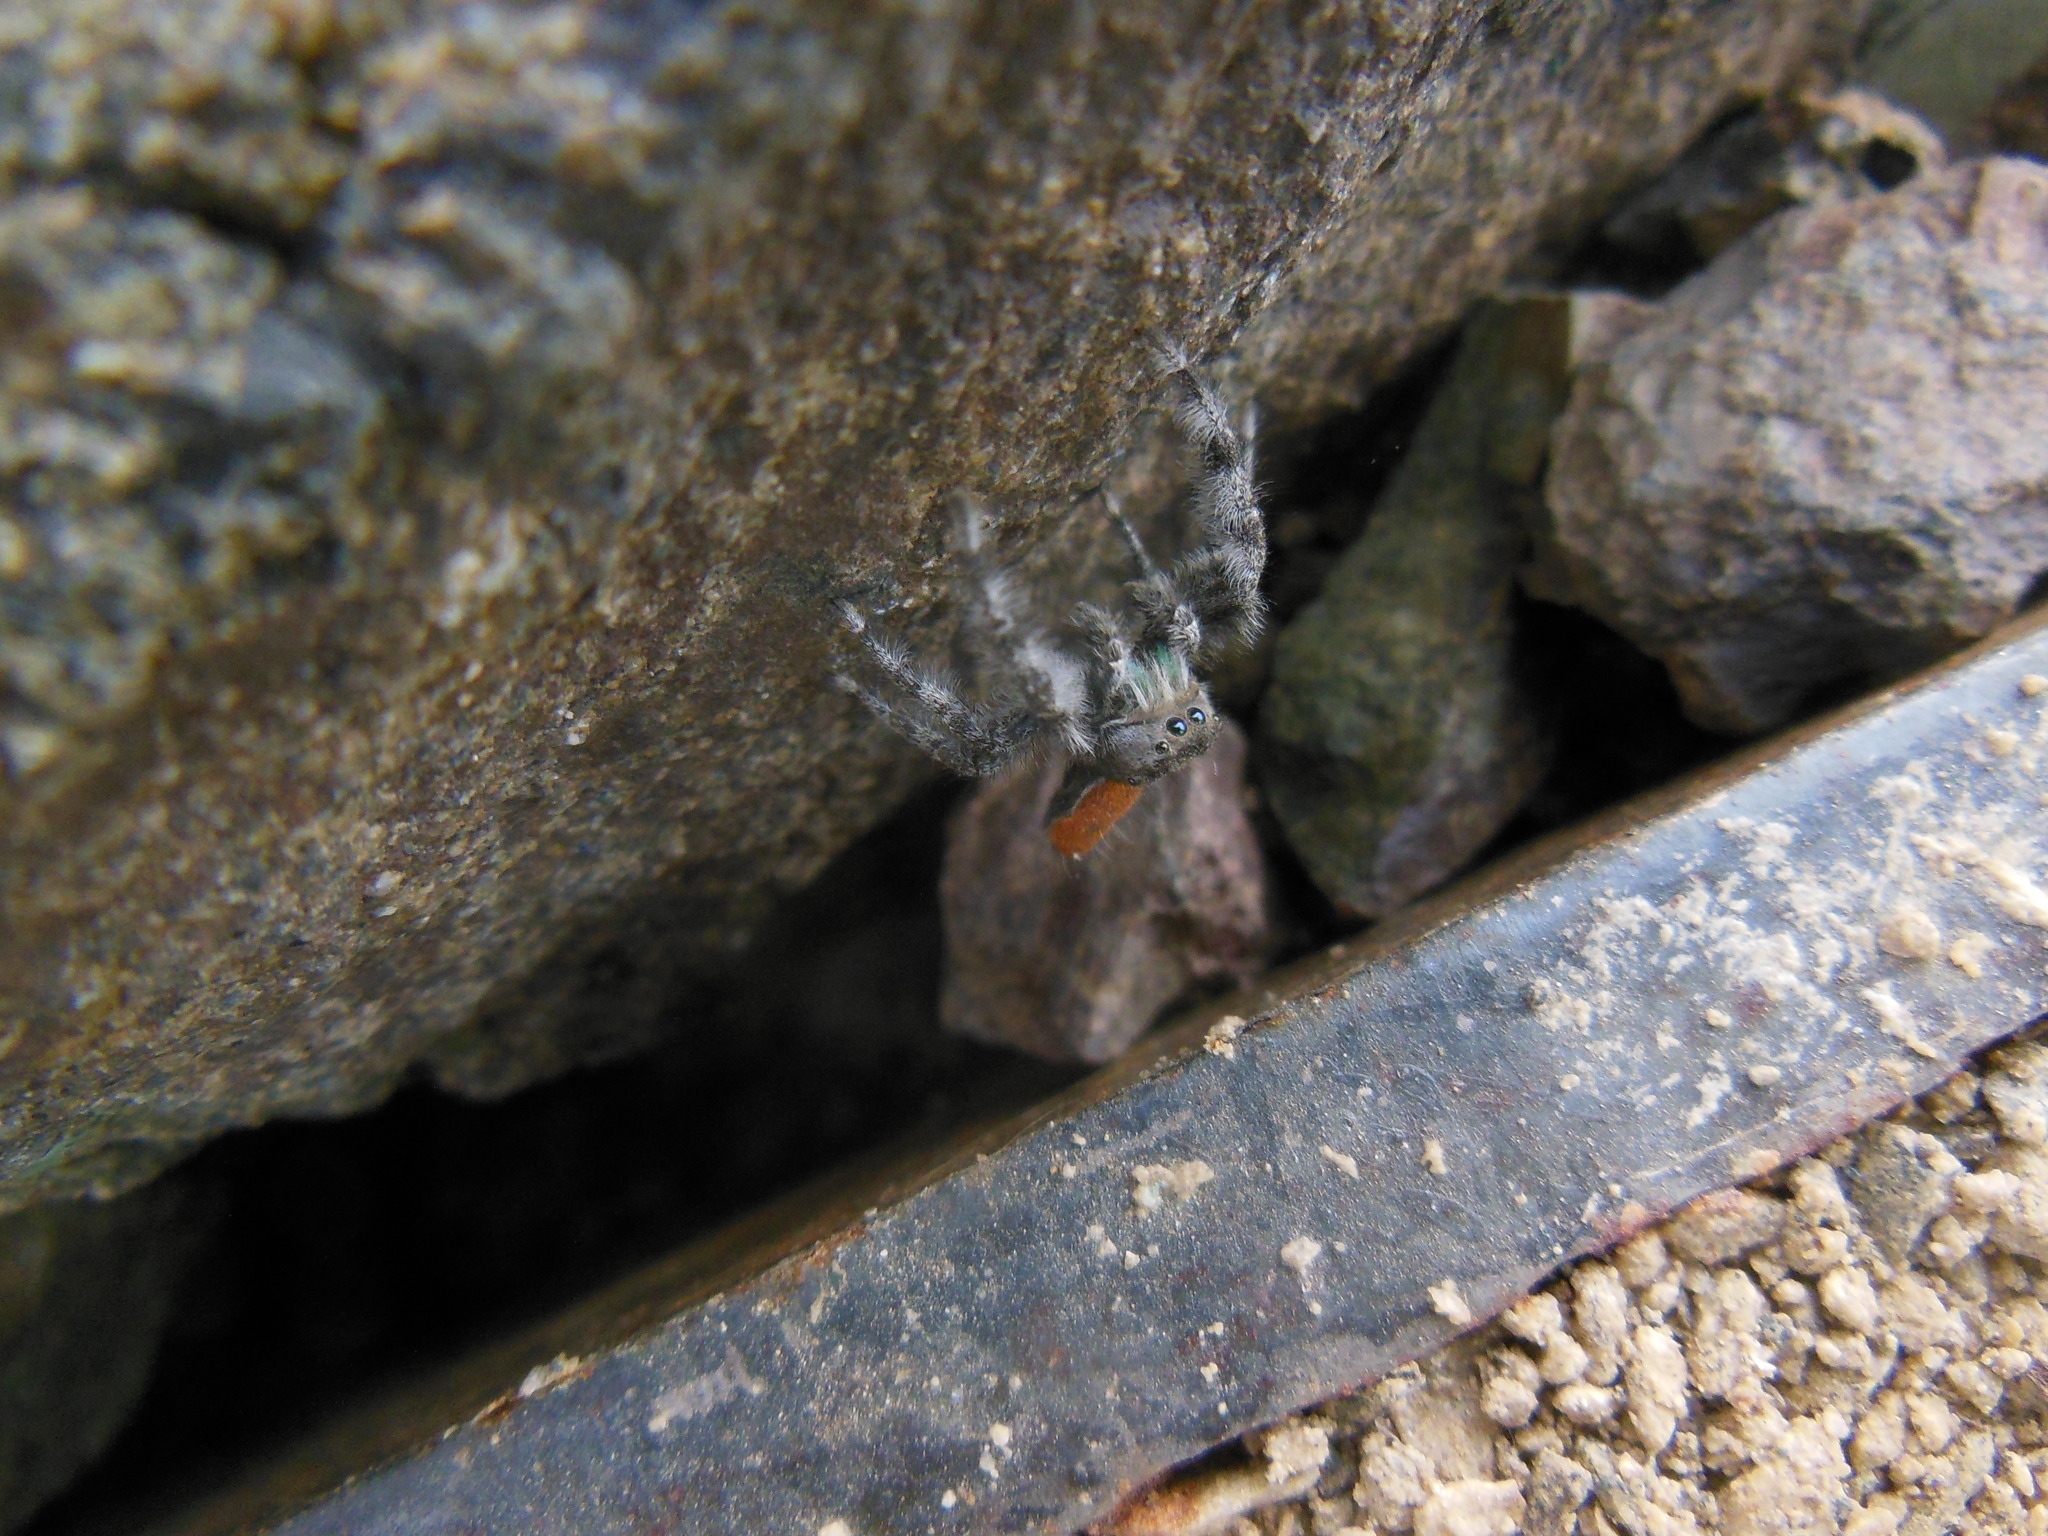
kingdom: Animalia
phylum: Arthropoda
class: Arachnida
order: Araneae
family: Salticidae
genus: Phidippus
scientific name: Phidippus kastoni
